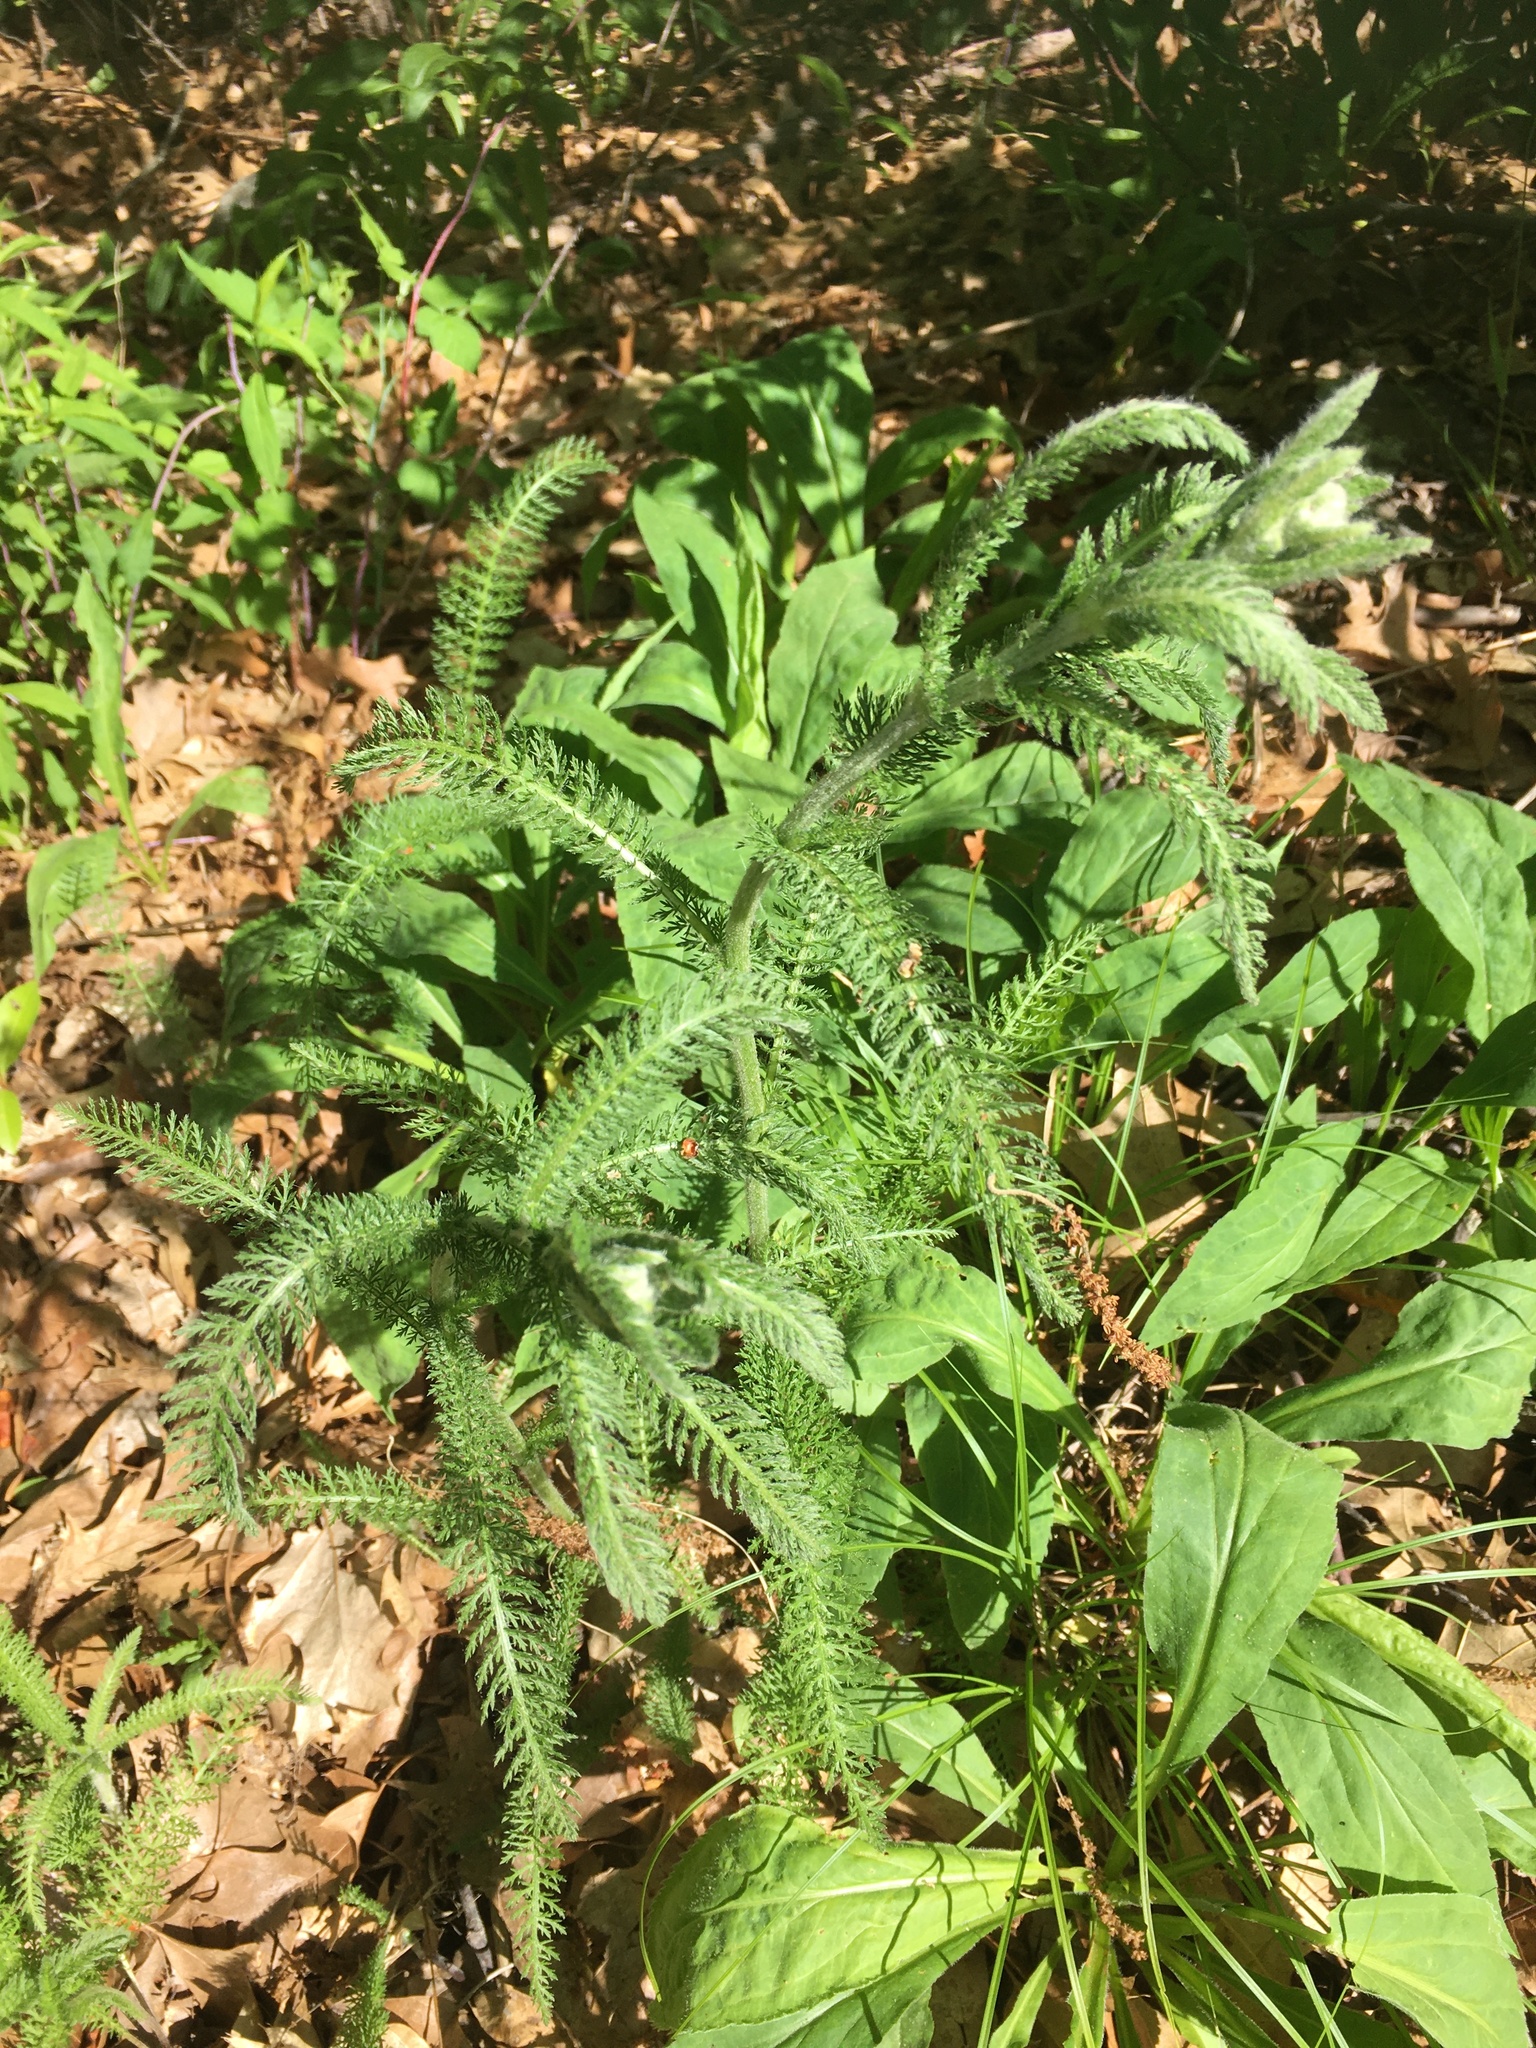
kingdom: Plantae
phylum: Tracheophyta
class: Magnoliopsida
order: Asterales
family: Asteraceae
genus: Achillea
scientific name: Achillea millefolium
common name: Yarrow
